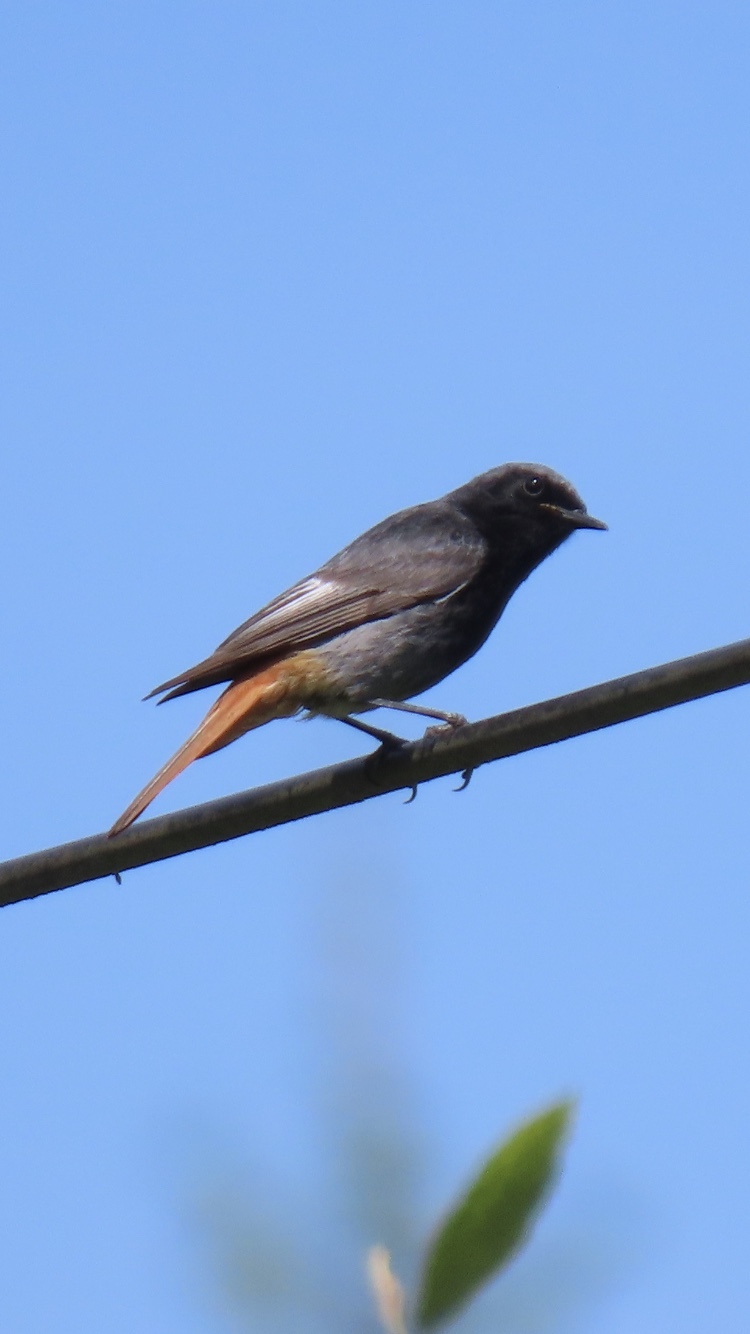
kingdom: Animalia
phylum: Chordata
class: Aves
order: Passeriformes
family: Muscicapidae
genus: Phoenicurus
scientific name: Phoenicurus ochruros
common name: Black redstart
